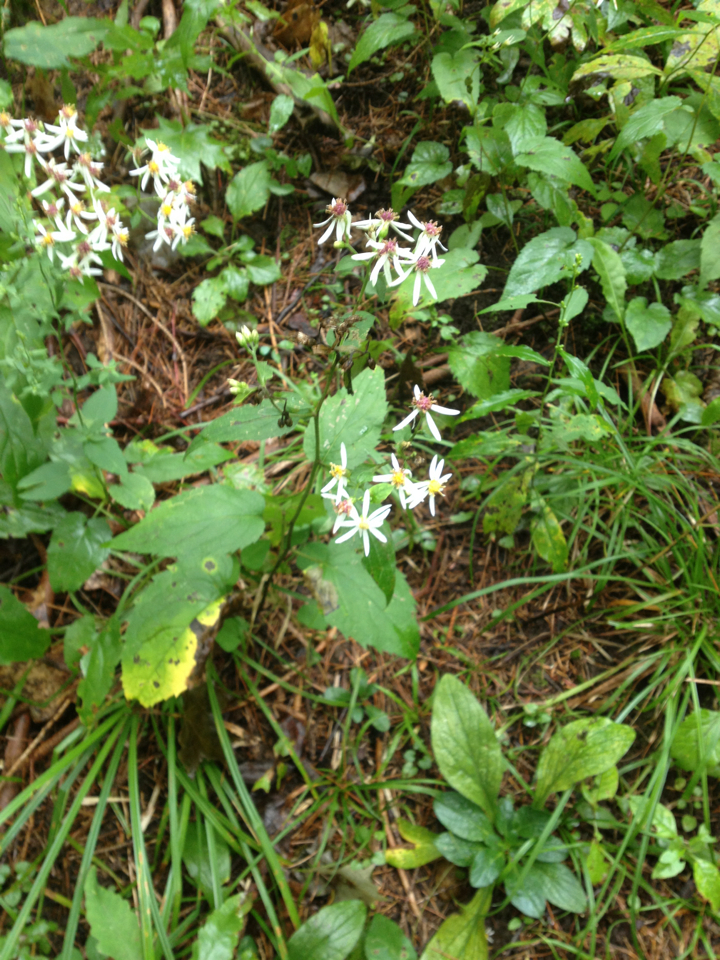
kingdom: Plantae
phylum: Tracheophyta
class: Magnoliopsida
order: Asterales
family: Asteraceae
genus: Eurybia
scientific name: Eurybia divaricata
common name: White wood aster
